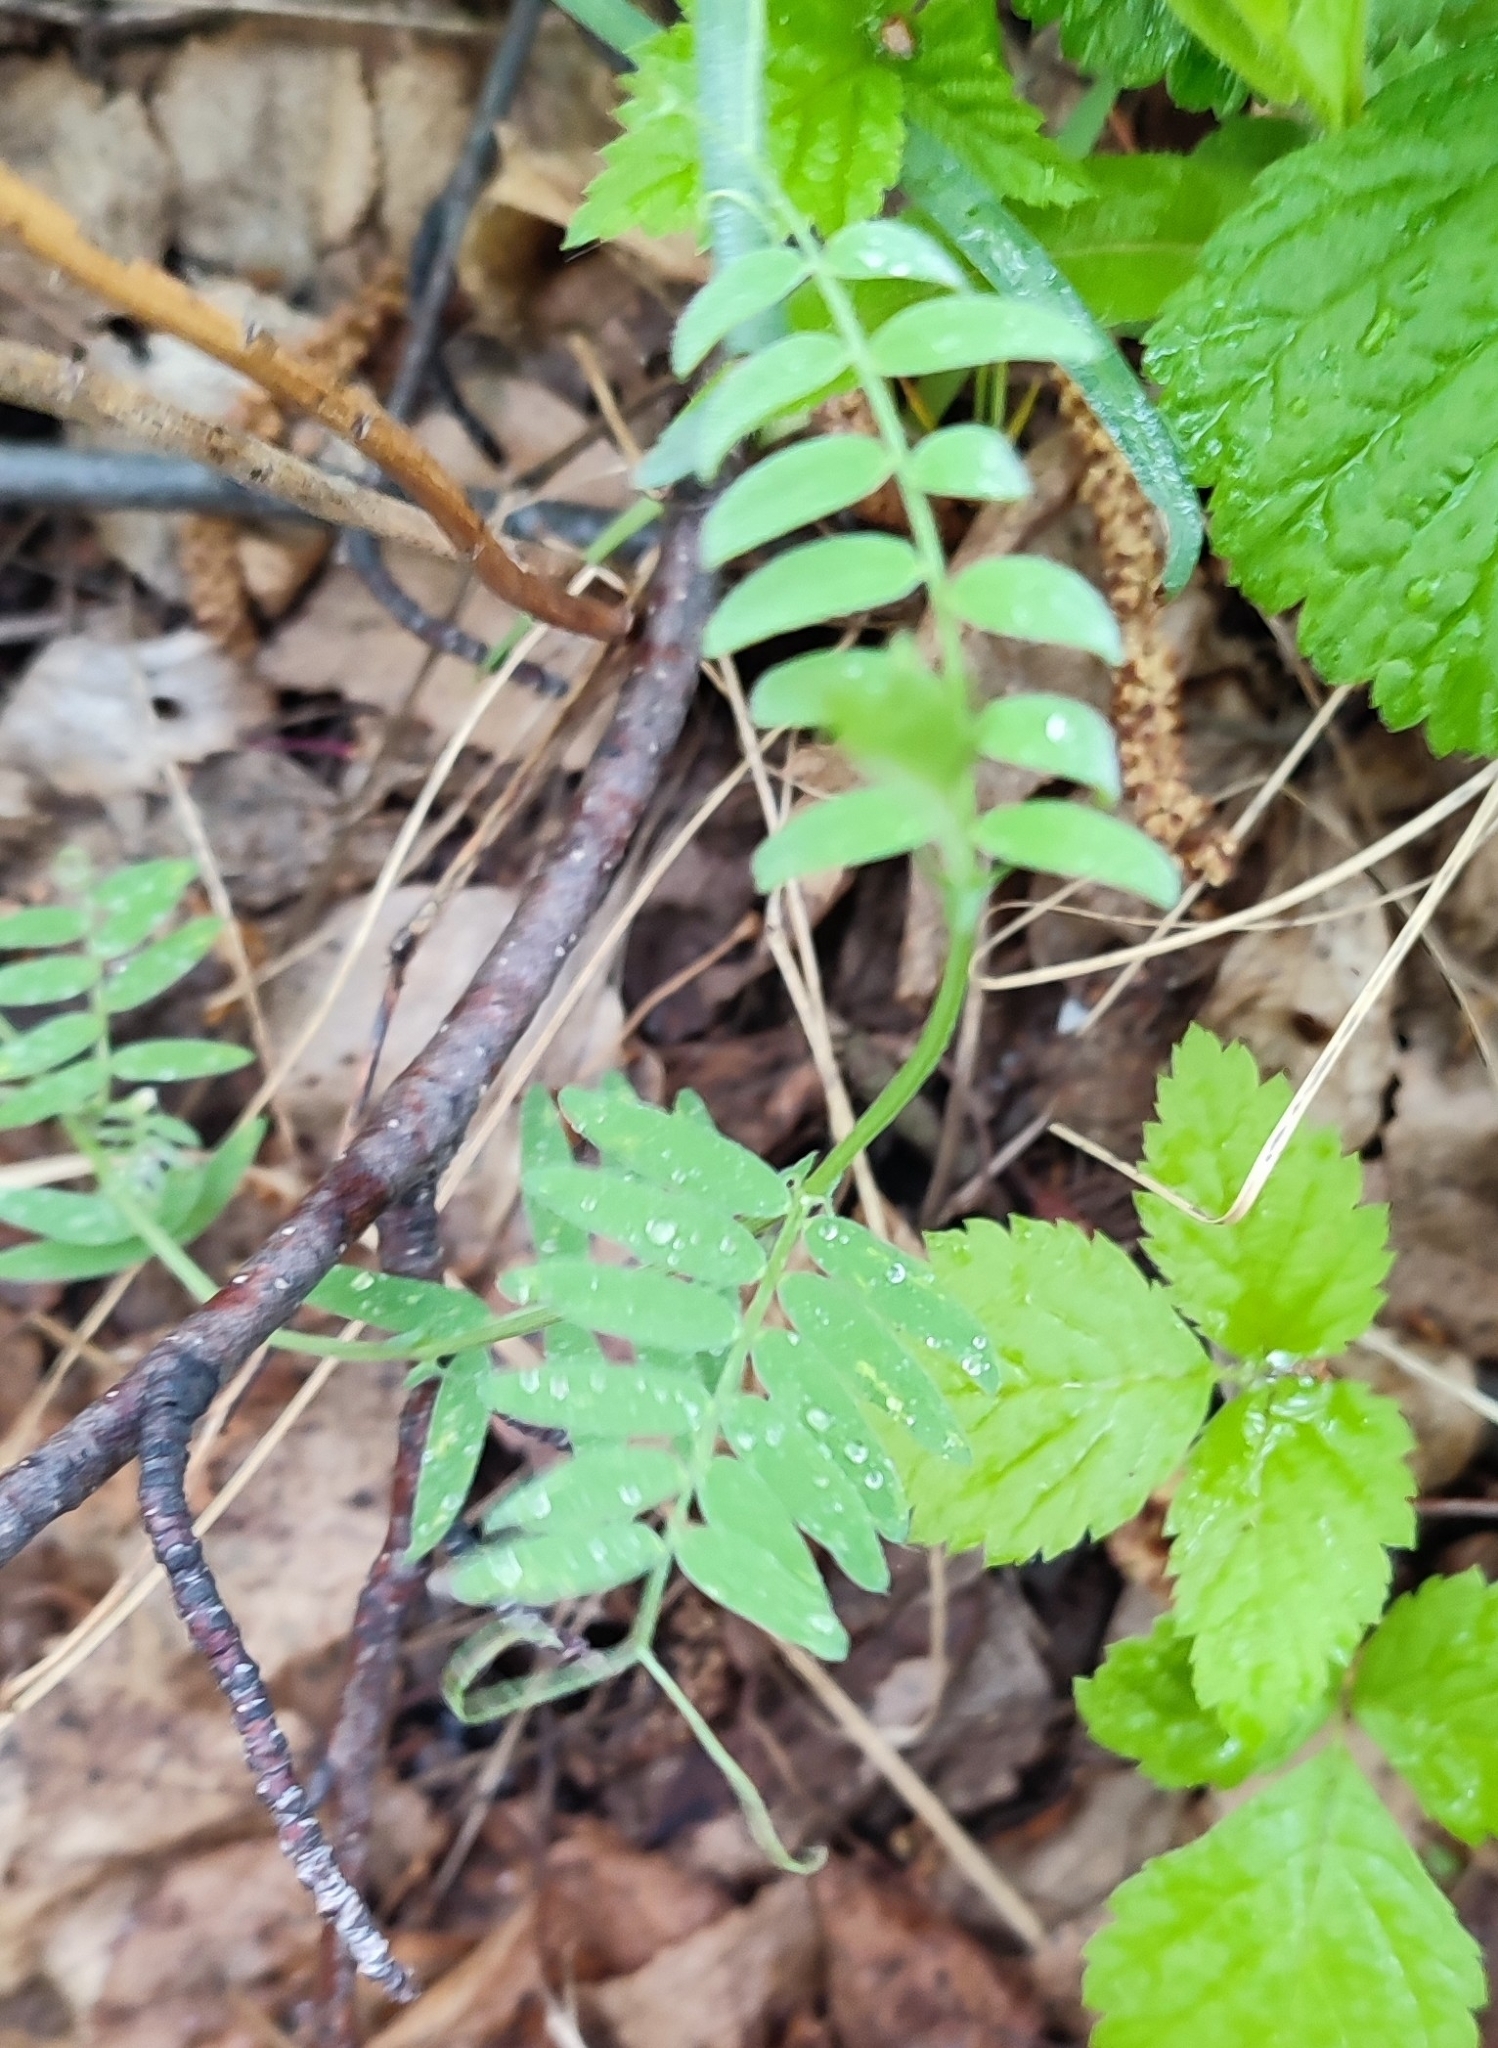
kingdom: Plantae
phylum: Tracheophyta
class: Magnoliopsida
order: Fabales
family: Fabaceae
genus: Vicia
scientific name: Vicia cracca
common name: Bird vetch
